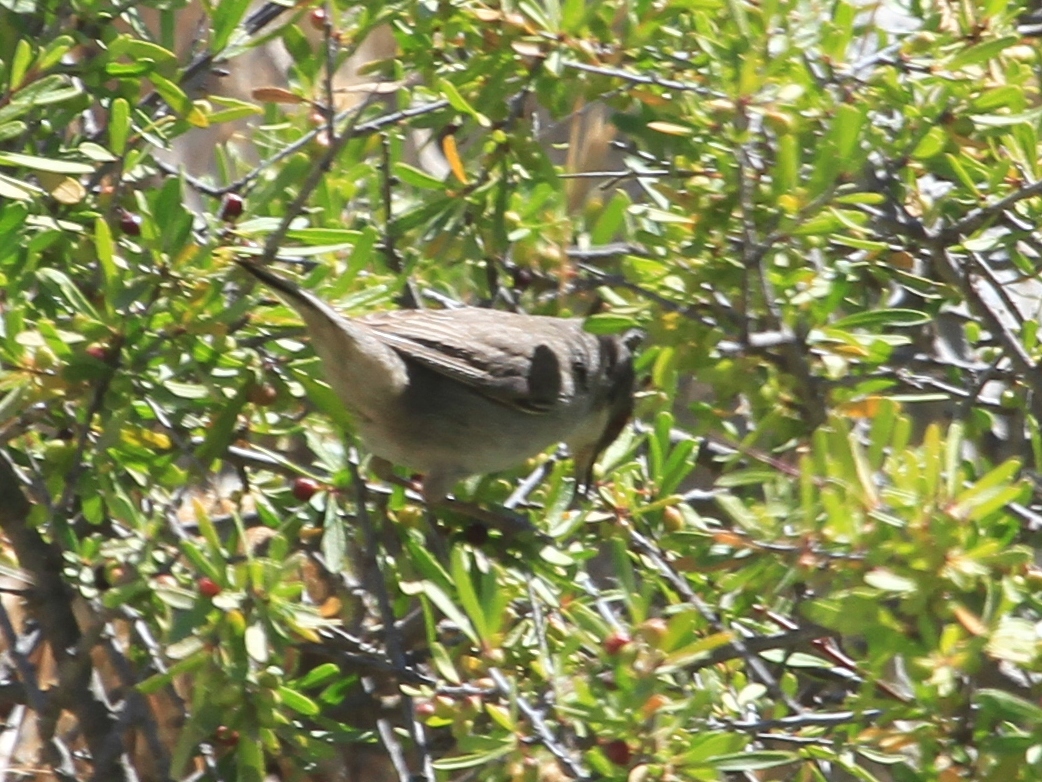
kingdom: Animalia
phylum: Chordata
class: Aves
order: Passeriformes
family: Sylviidae
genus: Curruca
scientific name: Curruca melanocephala
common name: Sardinian warbler
